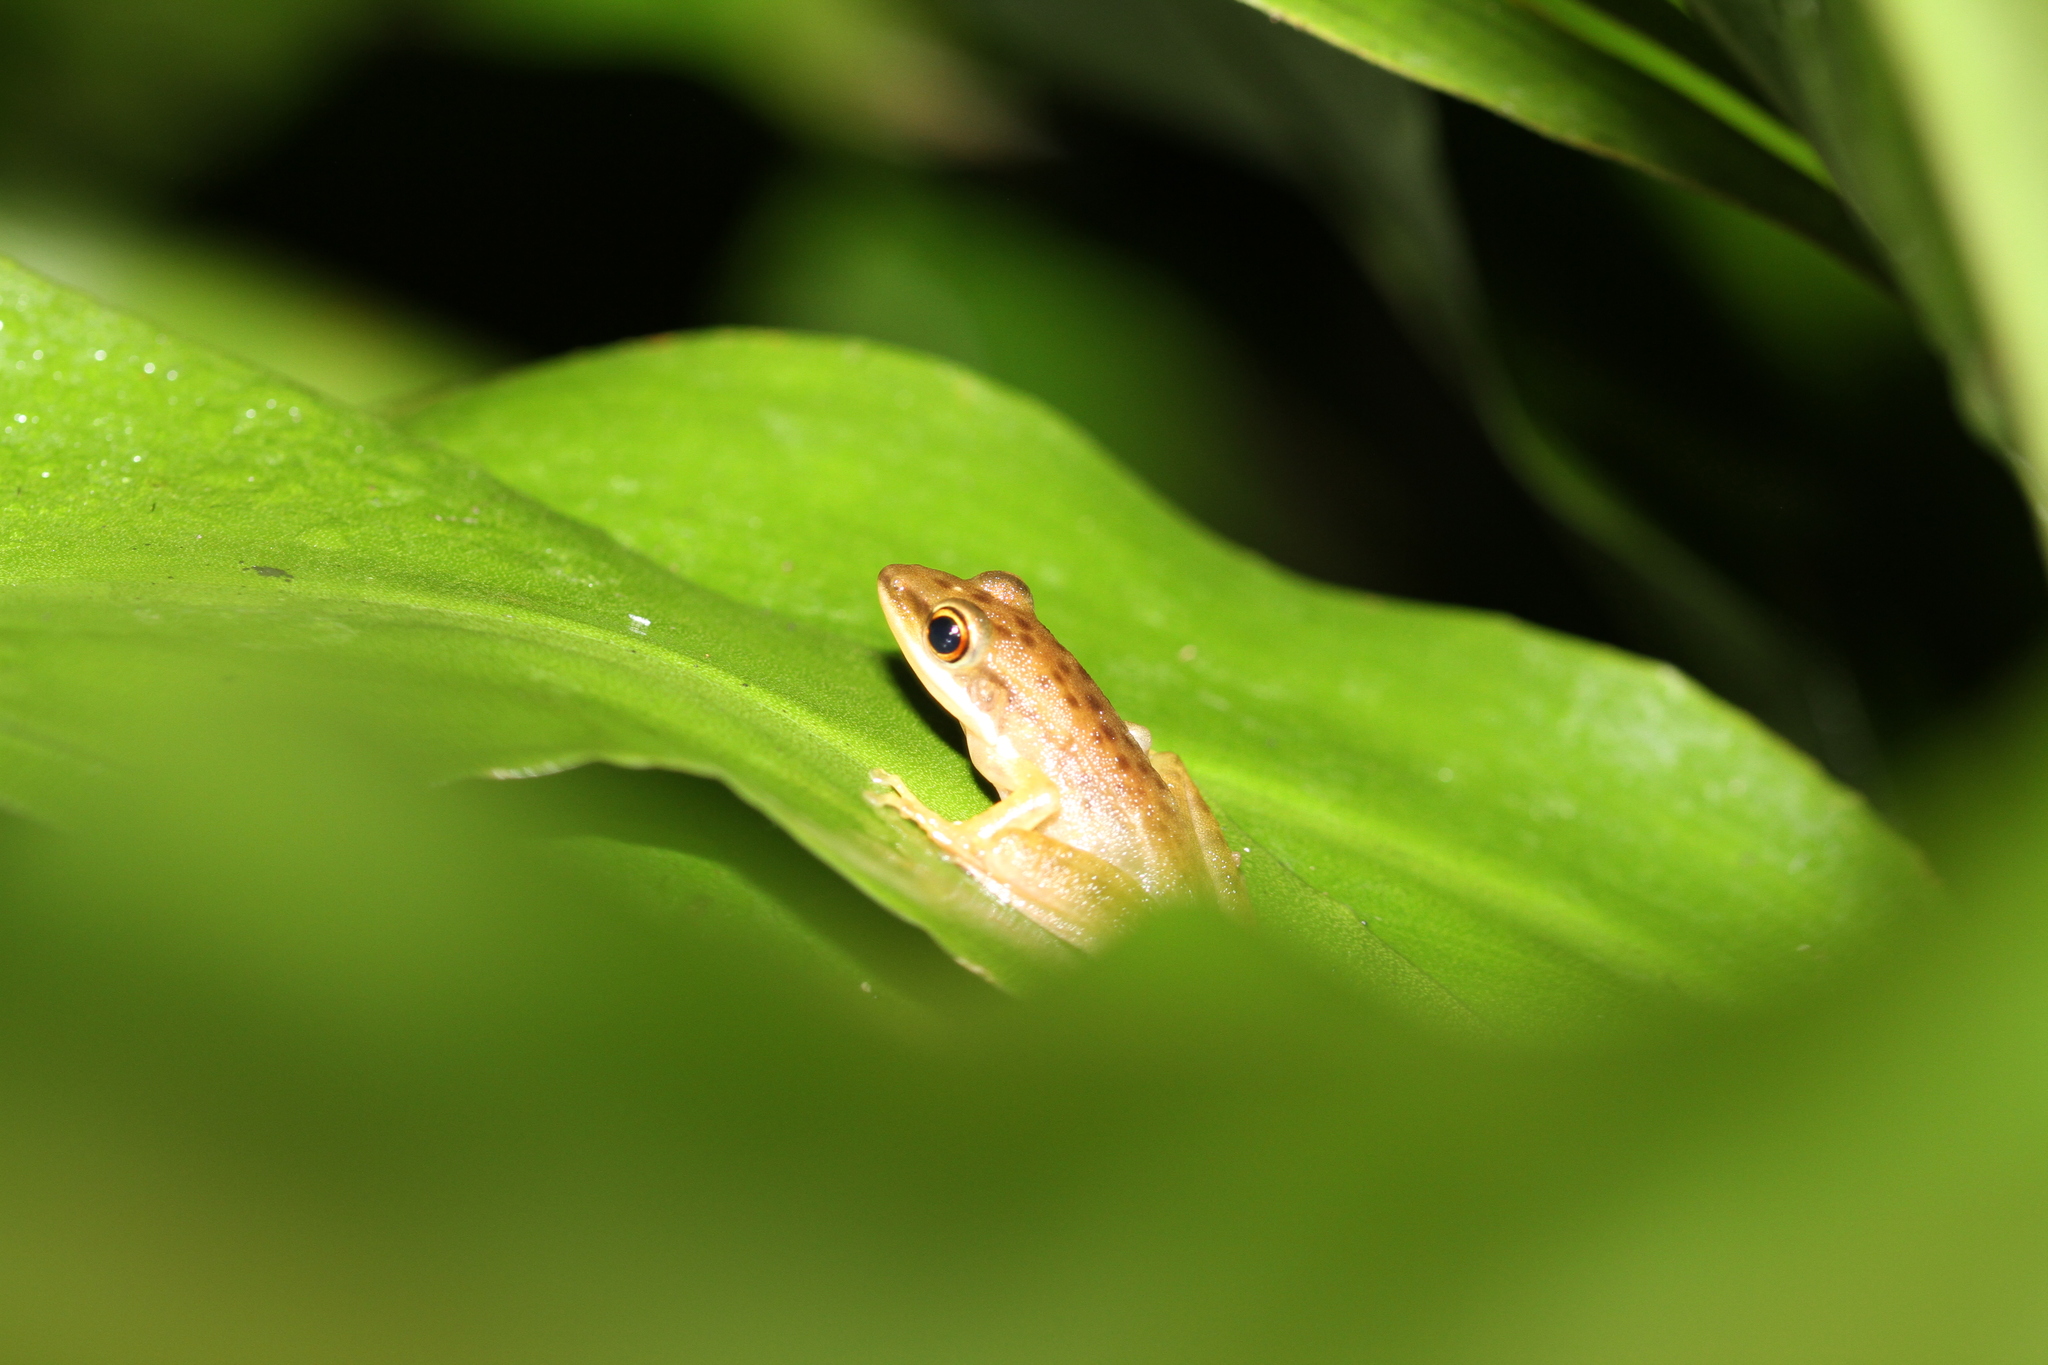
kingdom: Animalia
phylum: Chordata
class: Amphibia
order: Anura
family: Ranidae
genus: Chalcorana
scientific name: Chalcorana chalconota
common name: Schlegel's frog
